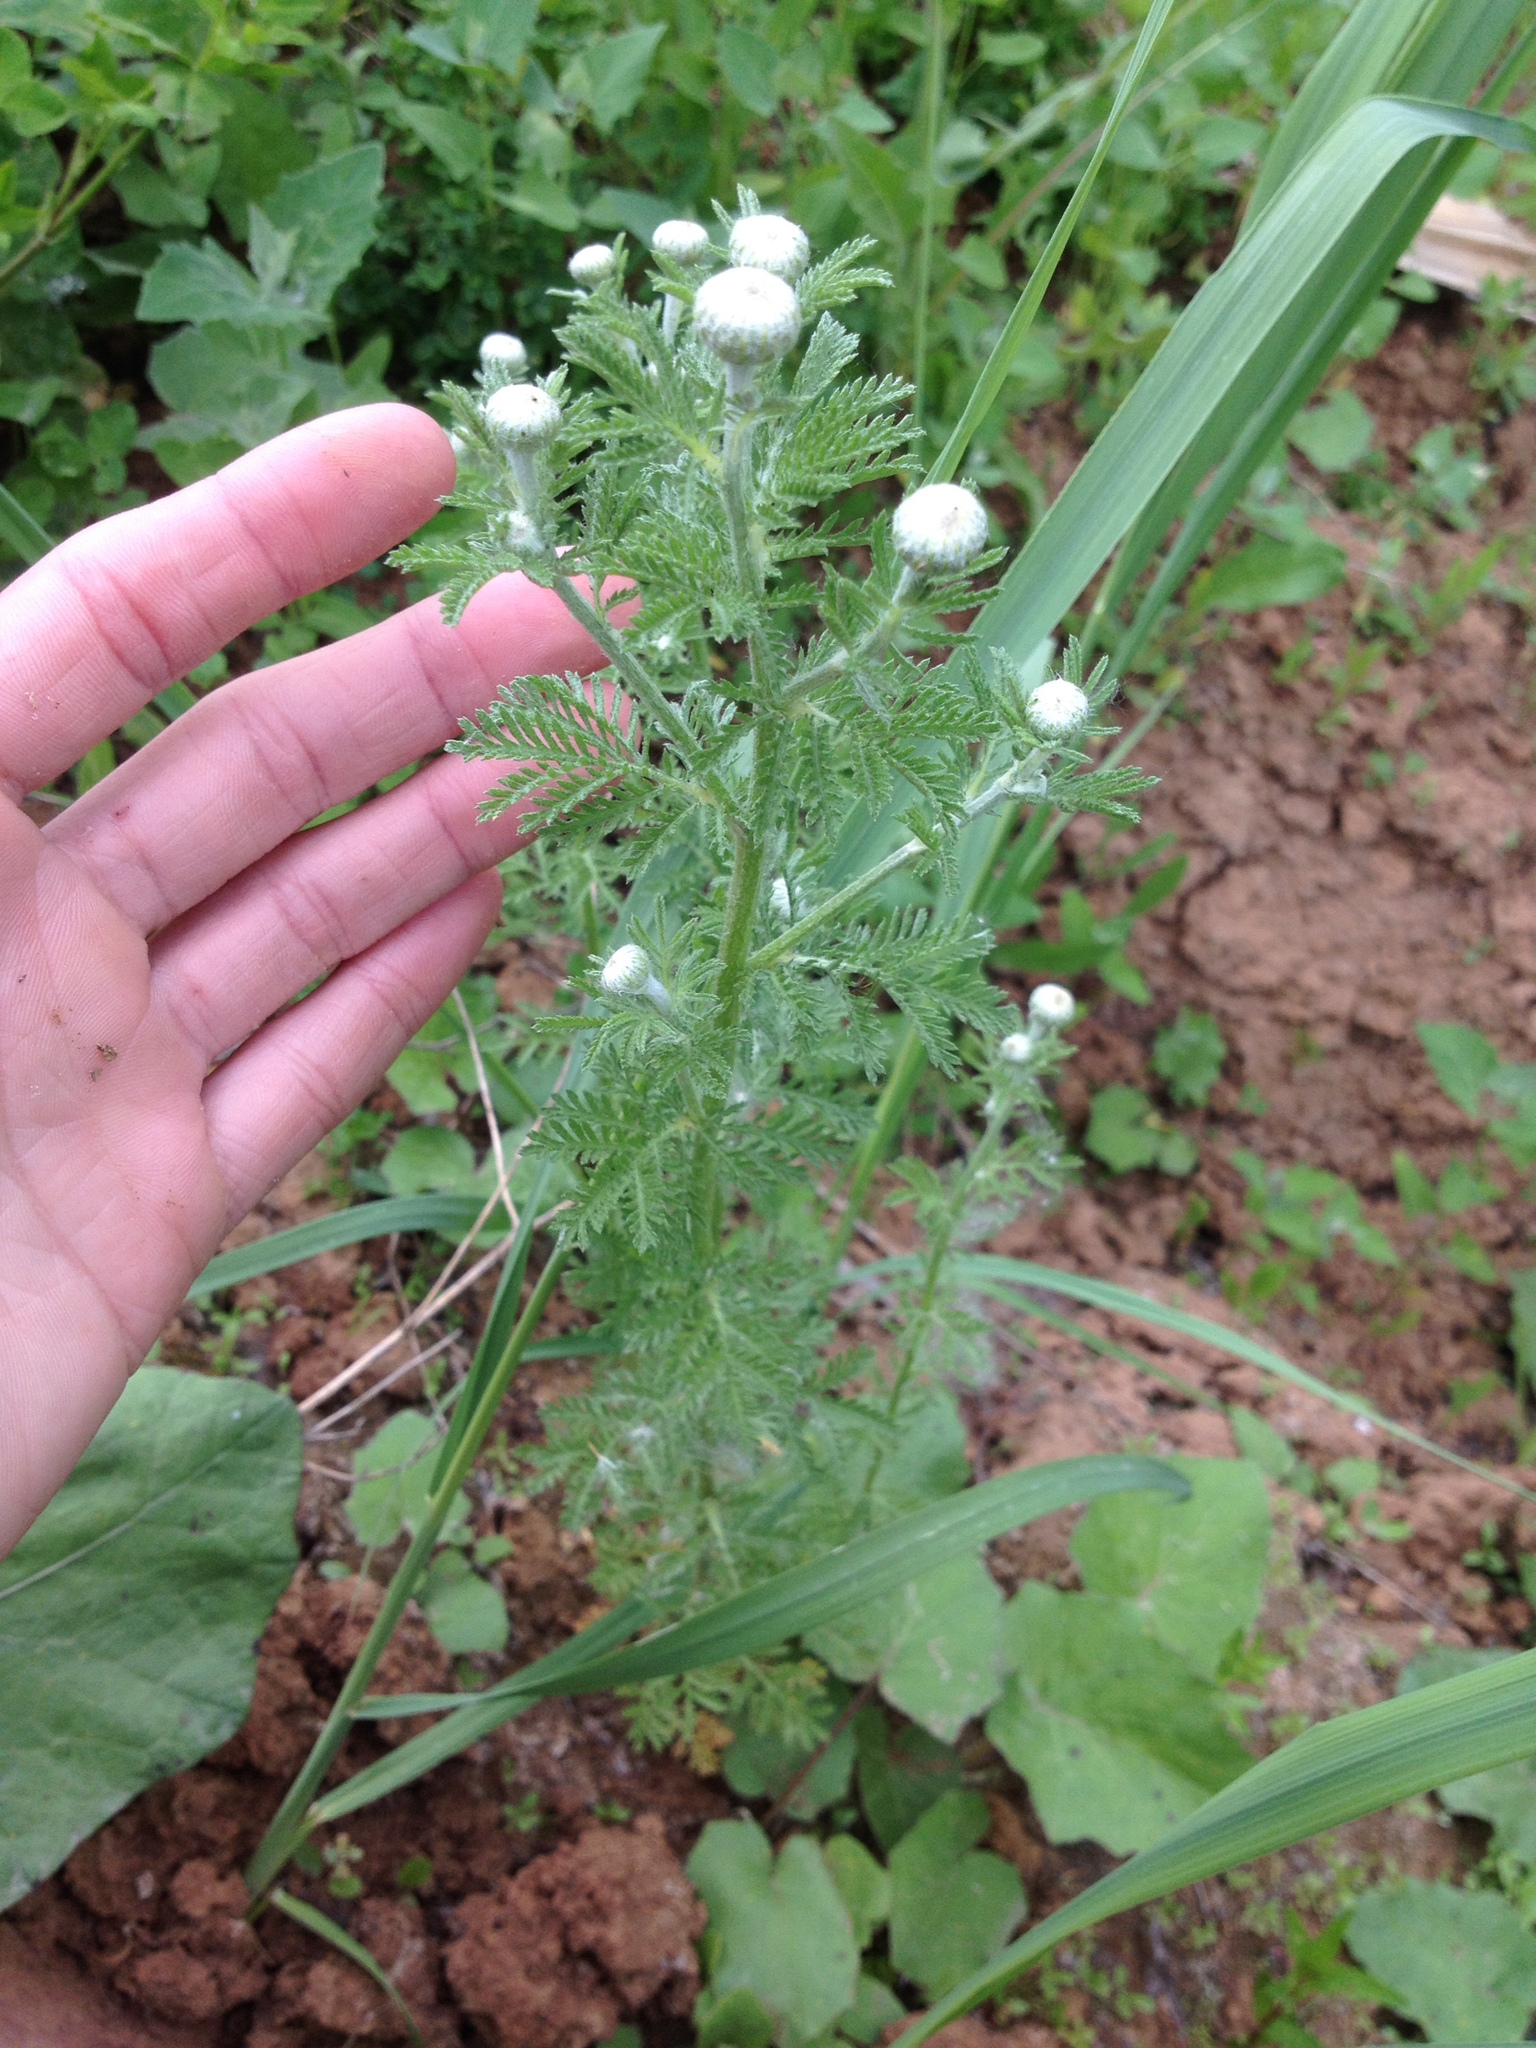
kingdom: Plantae
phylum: Tracheophyta
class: Magnoliopsida
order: Asterales
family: Asteraceae
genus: Cota
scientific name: Cota tinctoria
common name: Golden chamomile
